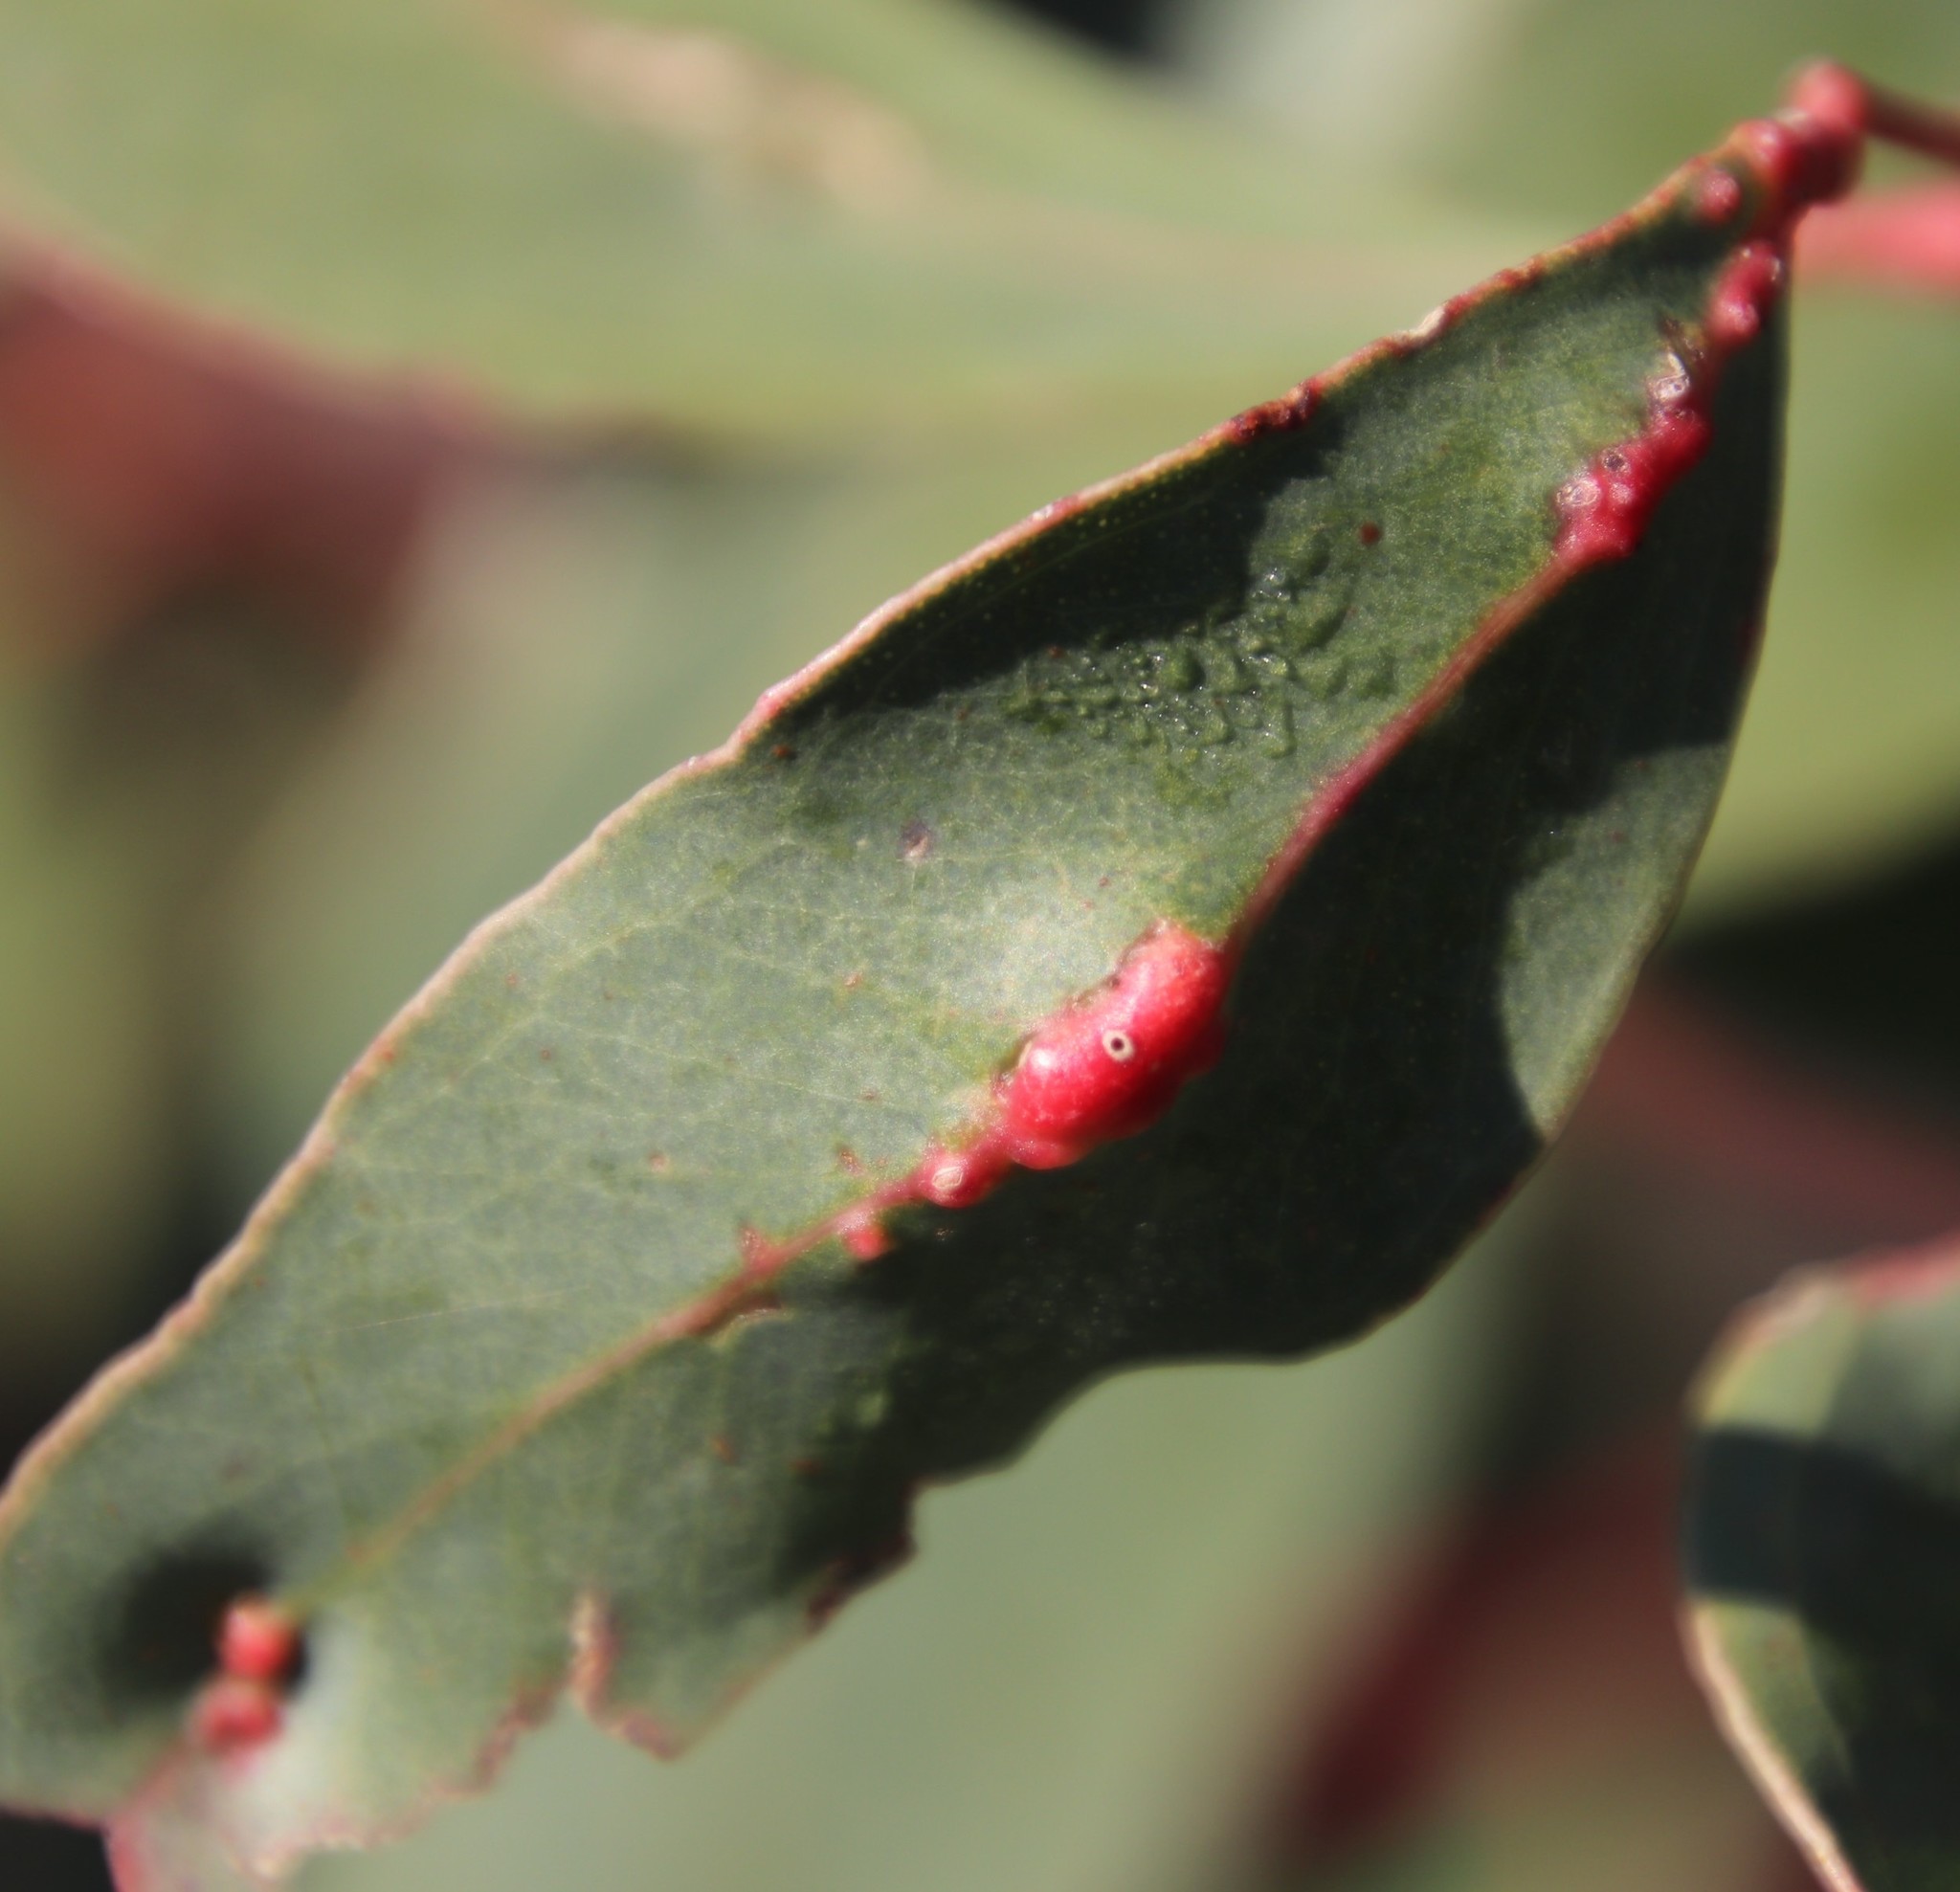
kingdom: Animalia
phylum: Arthropoda
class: Insecta
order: Hymenoptera
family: Eulophidae
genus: Leptocybe
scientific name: Leptocybe invasa
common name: Gall wasp
